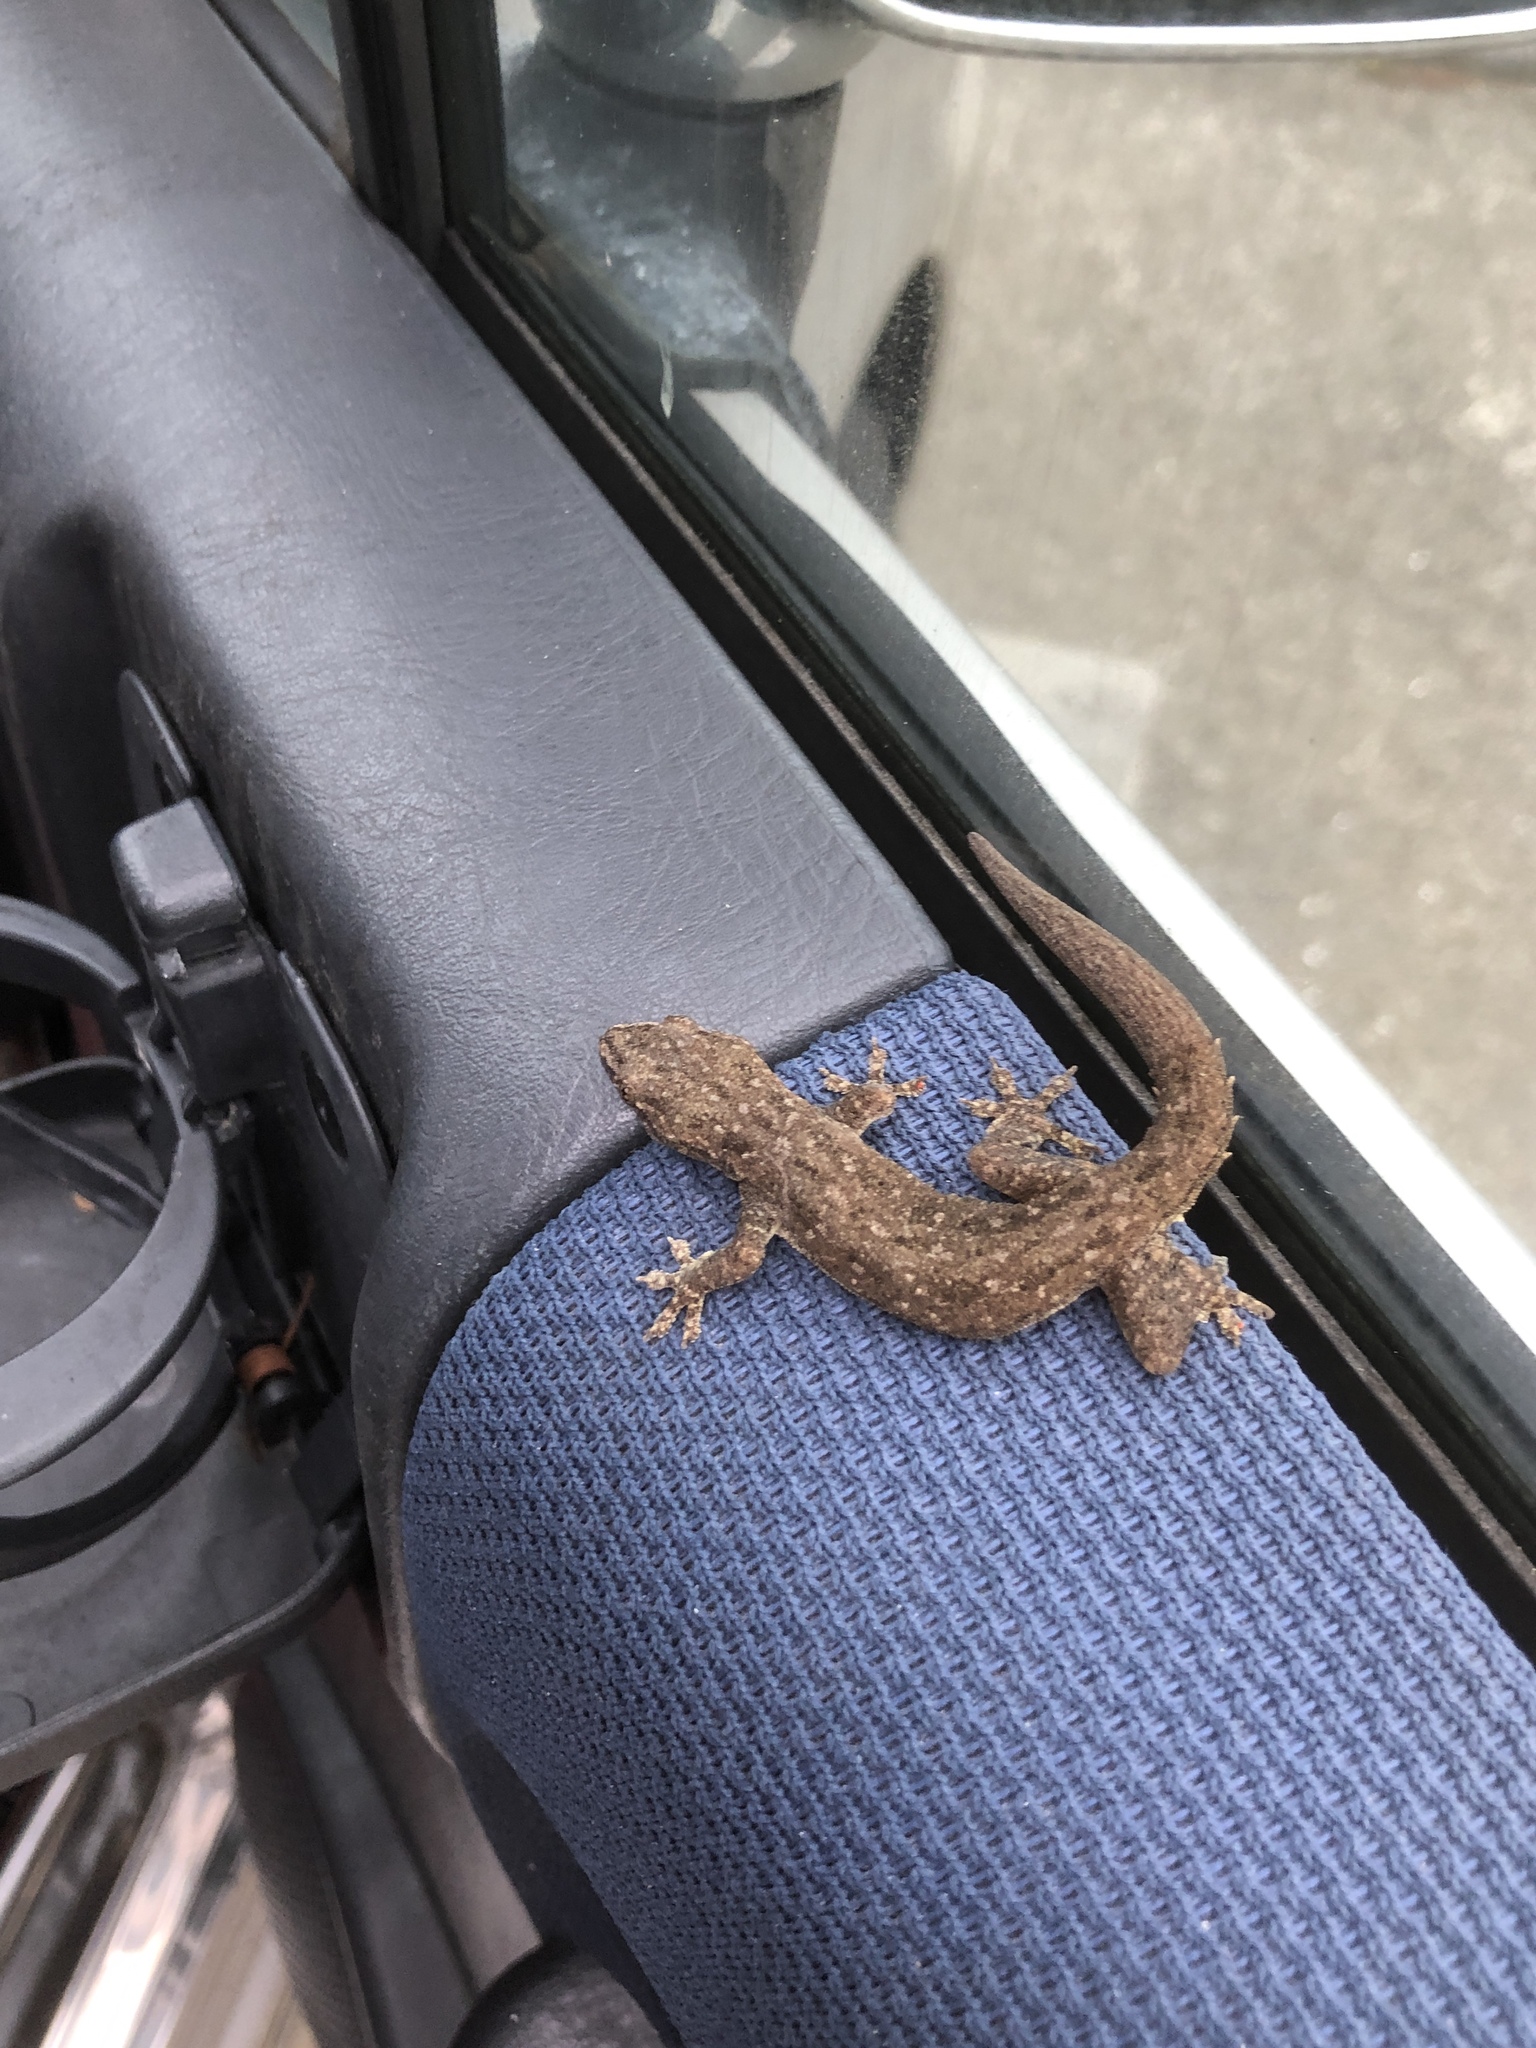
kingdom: Animalia
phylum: Chordata
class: Squamata
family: Gekkonidae
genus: Hemidactylus
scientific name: Hemidactylus frenatus
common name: Common house gecko
